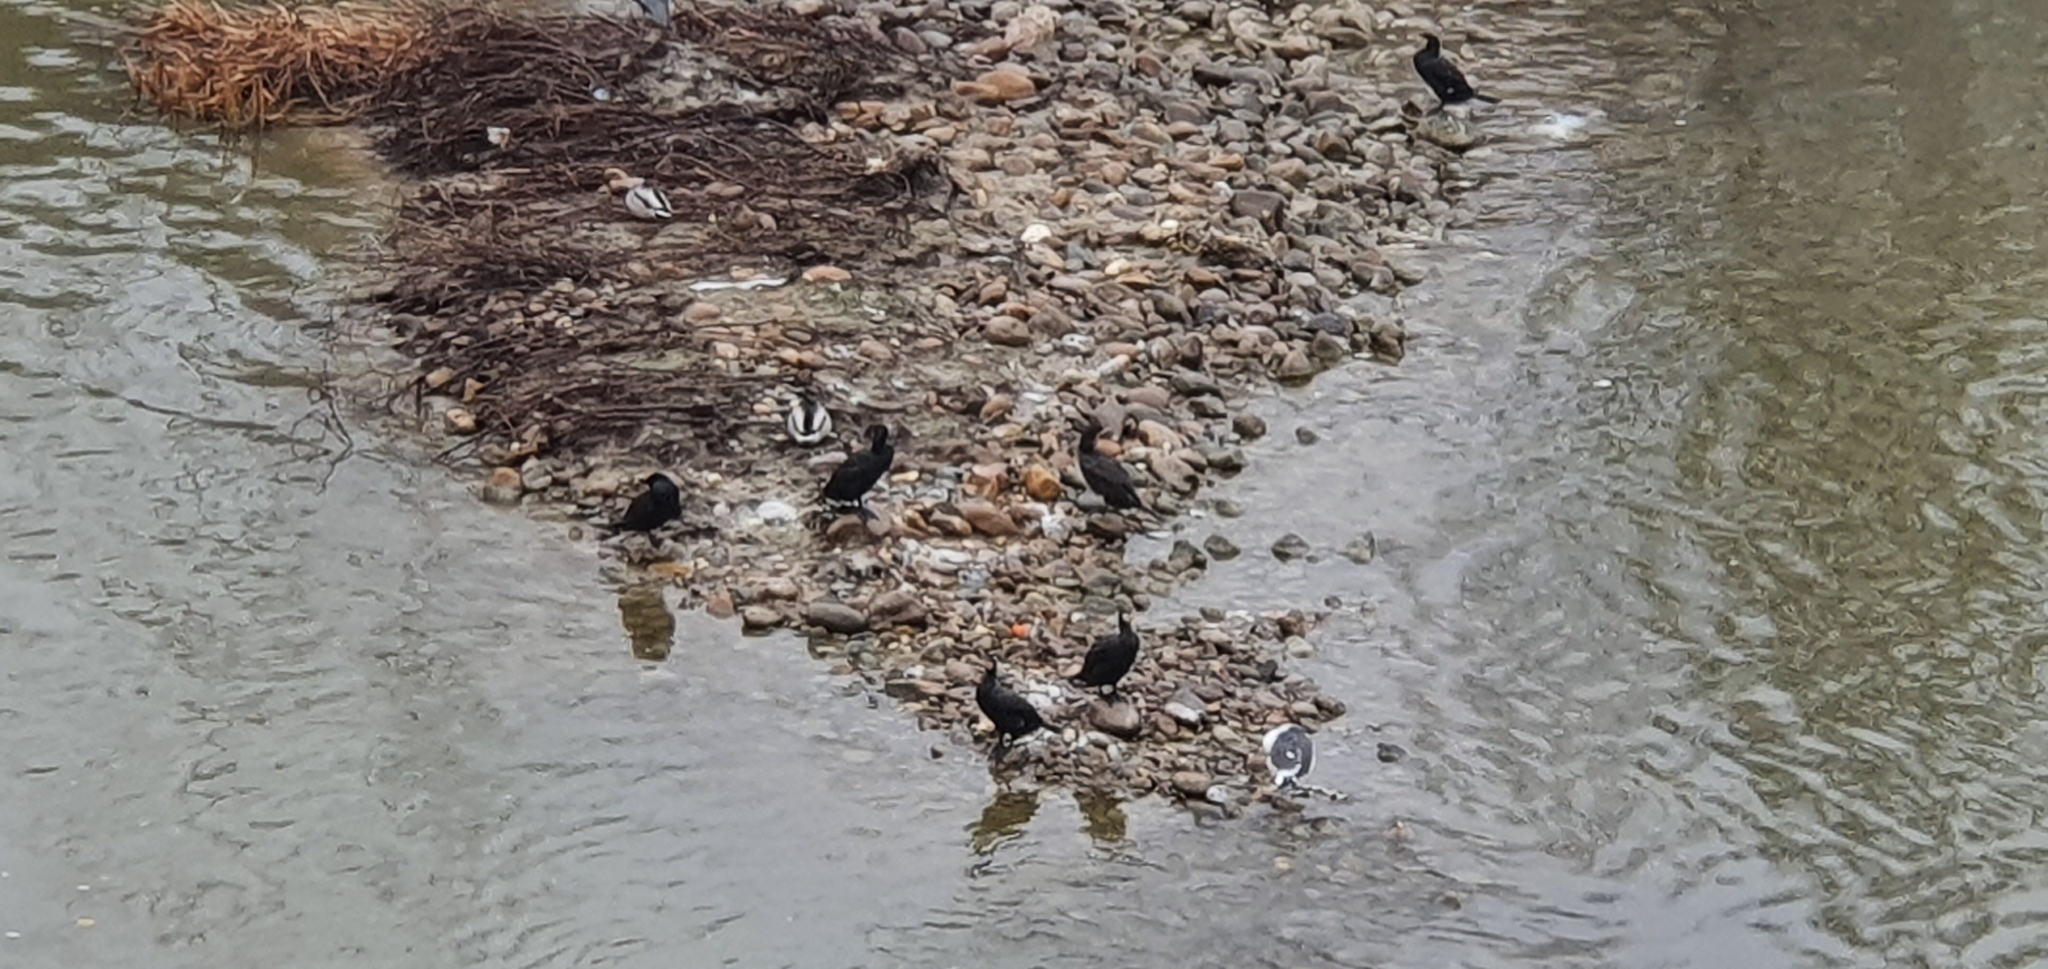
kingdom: Animalia
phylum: Chordata
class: Aves
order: Suliformes
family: Phalacrocoracidae
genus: Phalacrocorax
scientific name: Phalacrocorax carbo
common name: Great cormorant
